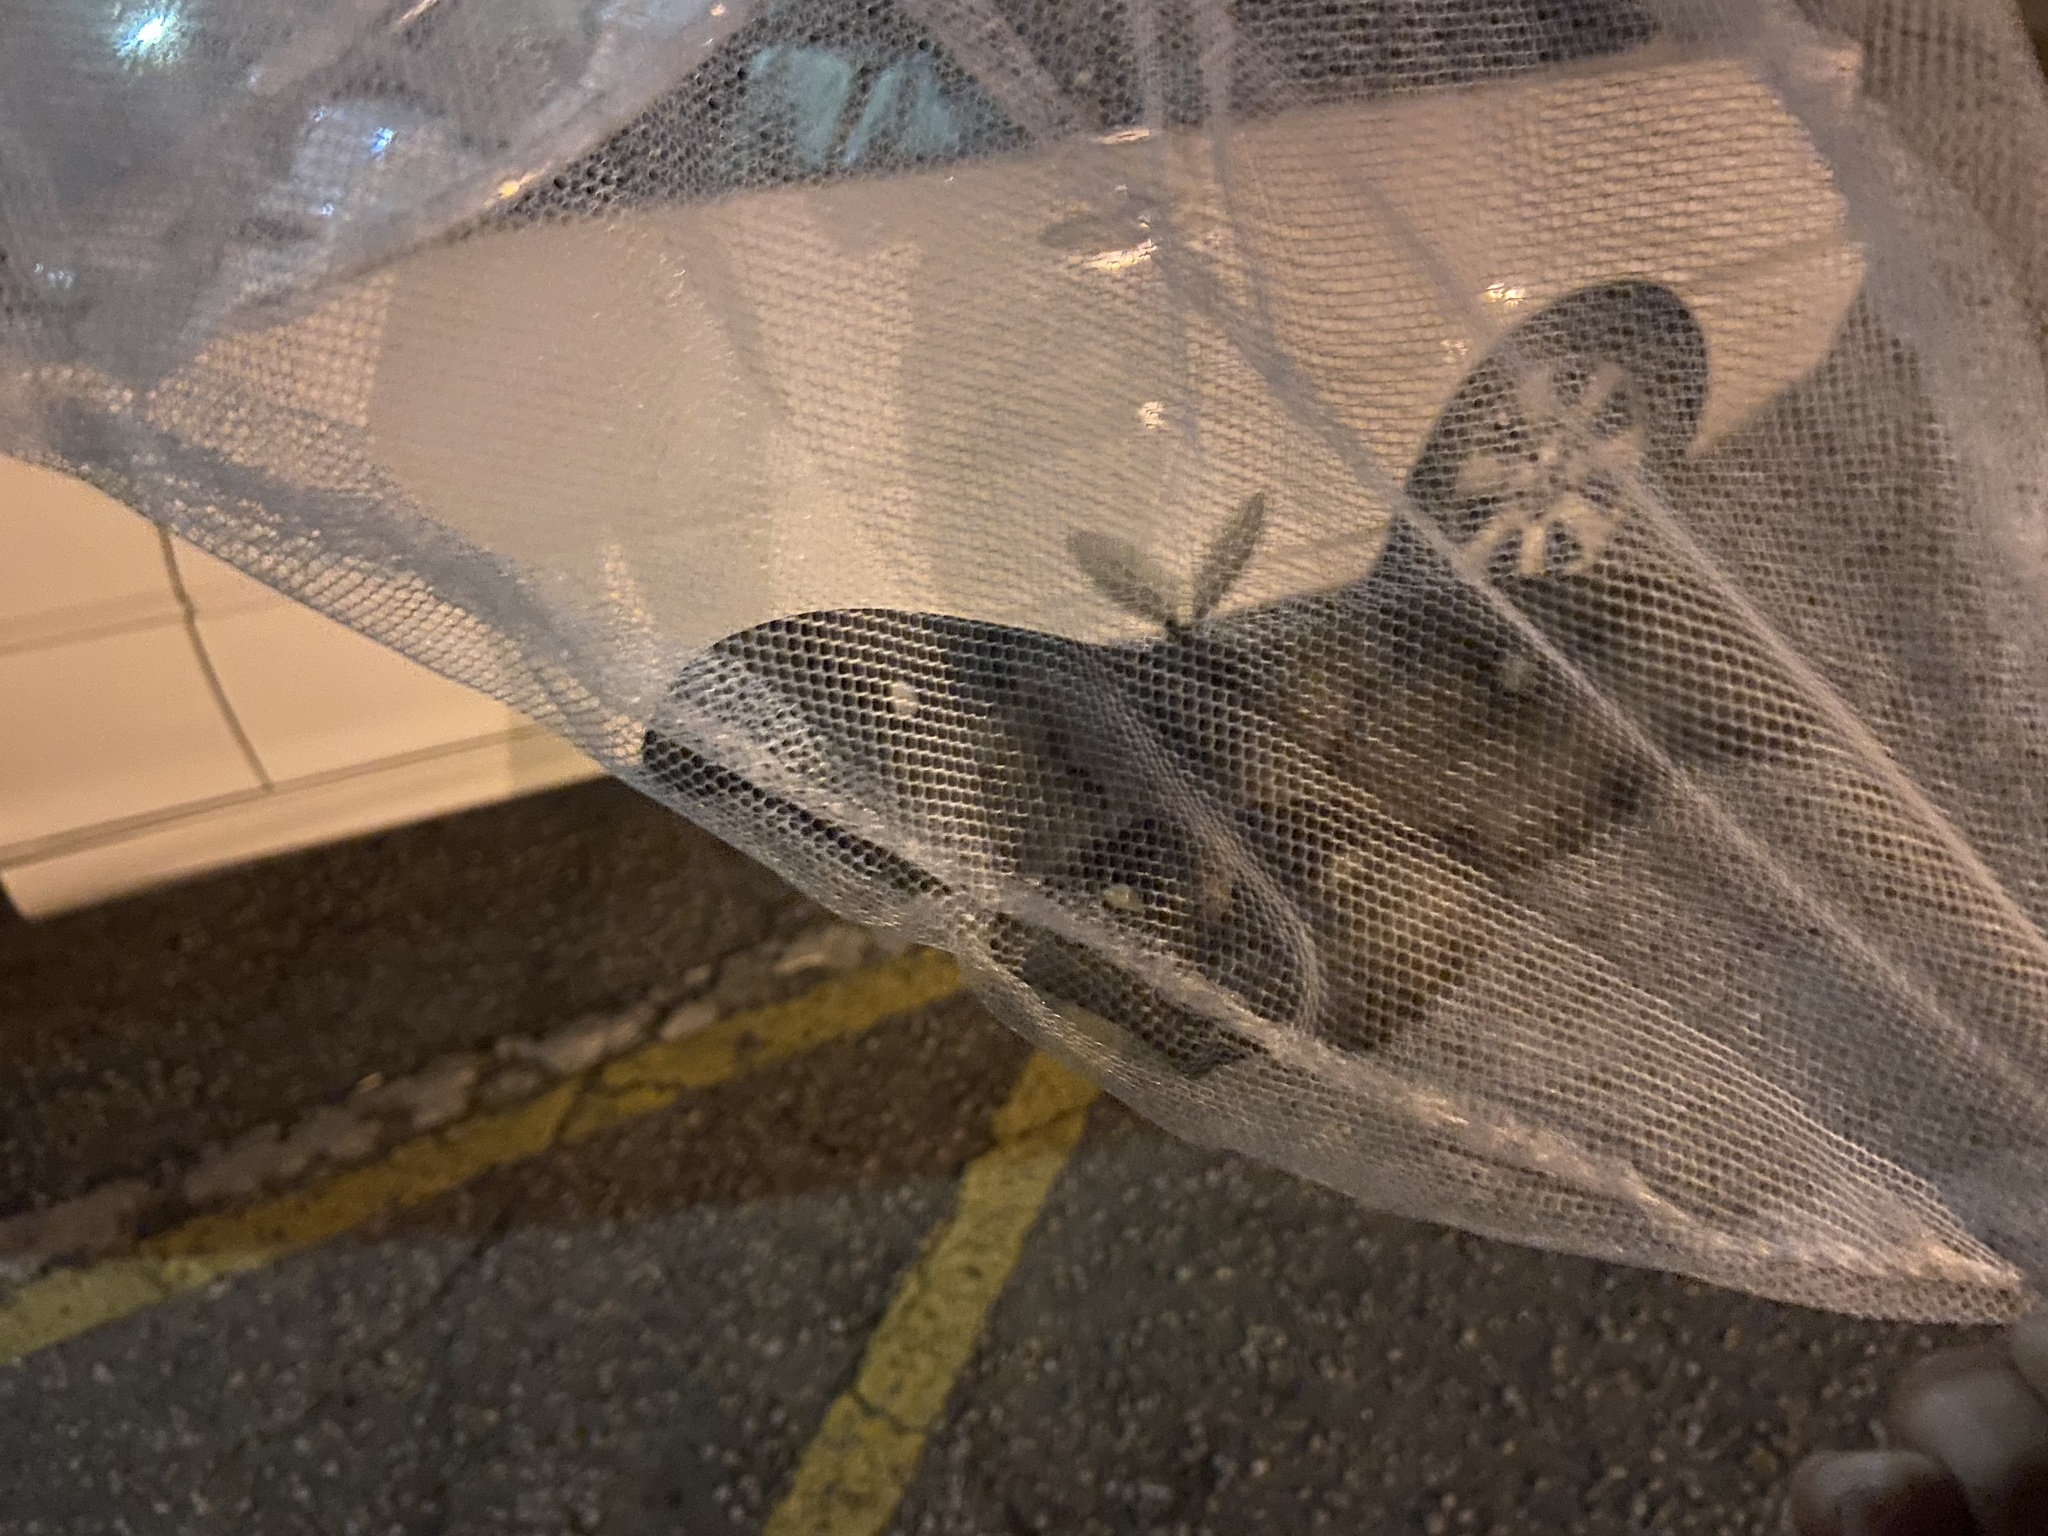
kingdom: Animalia
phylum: Arthropoda
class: Insecta
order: Lepidoptera
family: Saturniidae
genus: Antheraea
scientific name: Antheraea polyphemus
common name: Polyphemus moth
